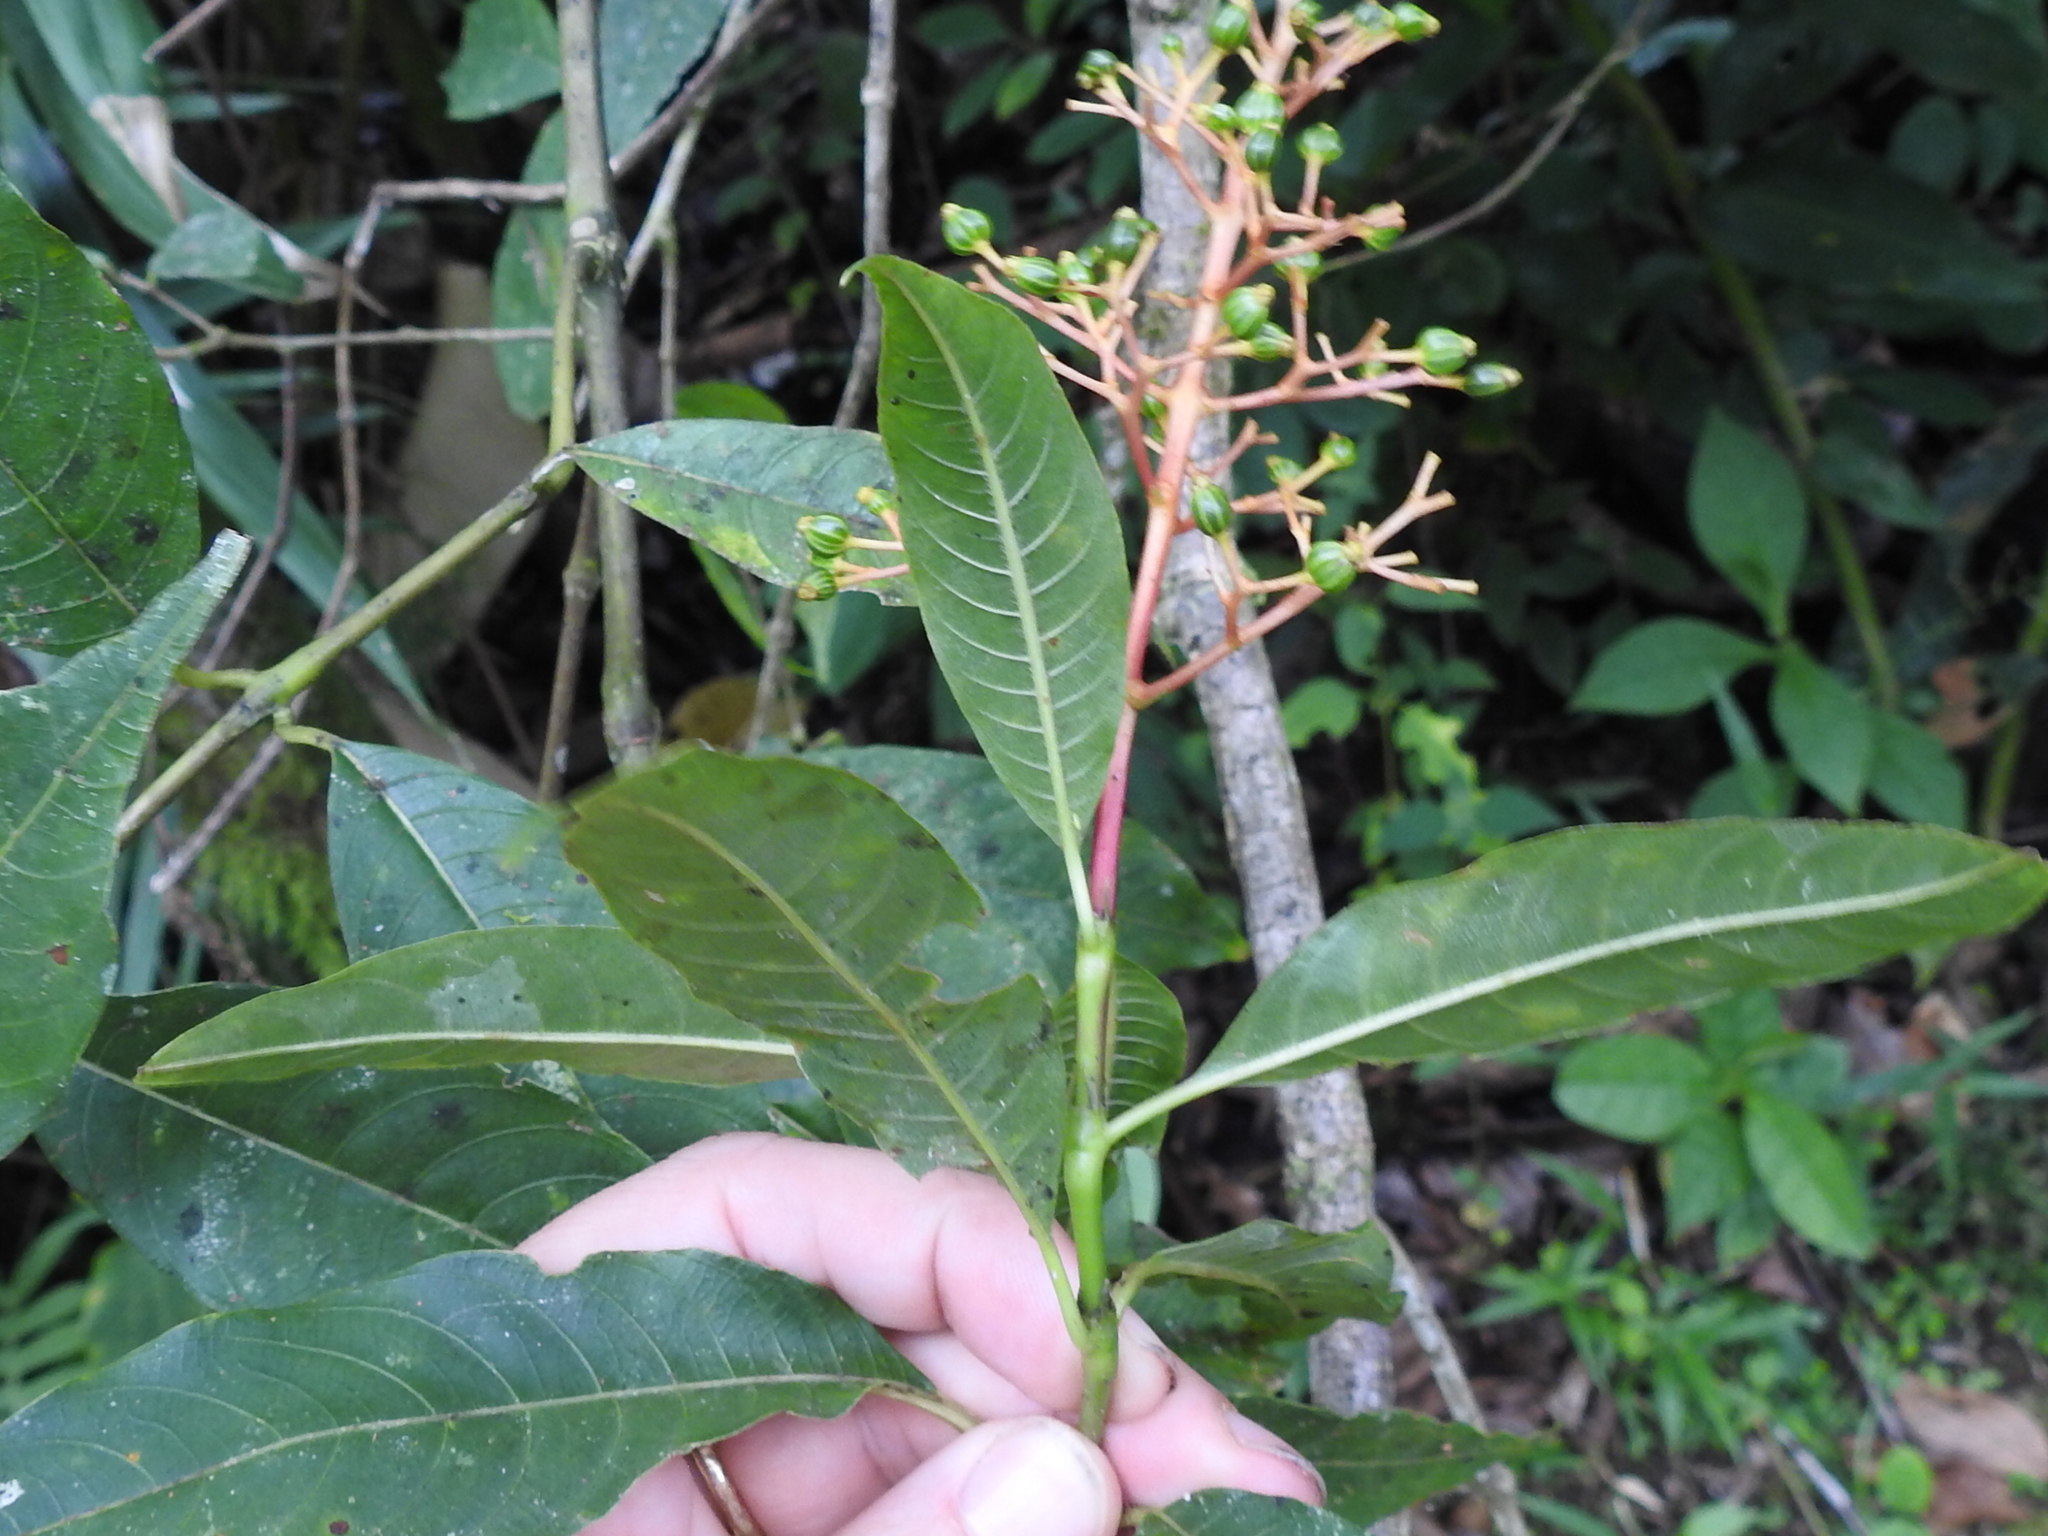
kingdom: Plantae
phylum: Tracheophyta
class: Magnoliopsida
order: Gentianales
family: Rubiaceae
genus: Palicourea
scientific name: Palicourea padifolia
